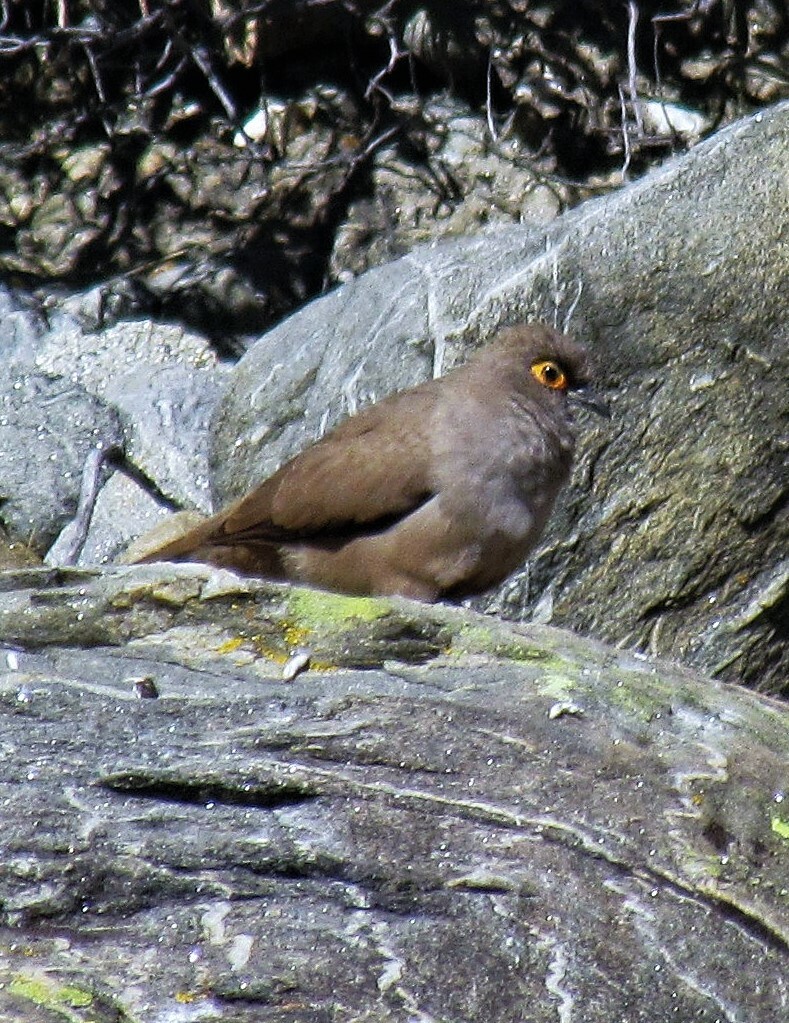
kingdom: Animalia
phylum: Chordata
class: Aves
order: Columbiformes
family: Columbidae
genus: Metriopelia
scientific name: Metriopelia morenoi
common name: Moreno's ground dove
